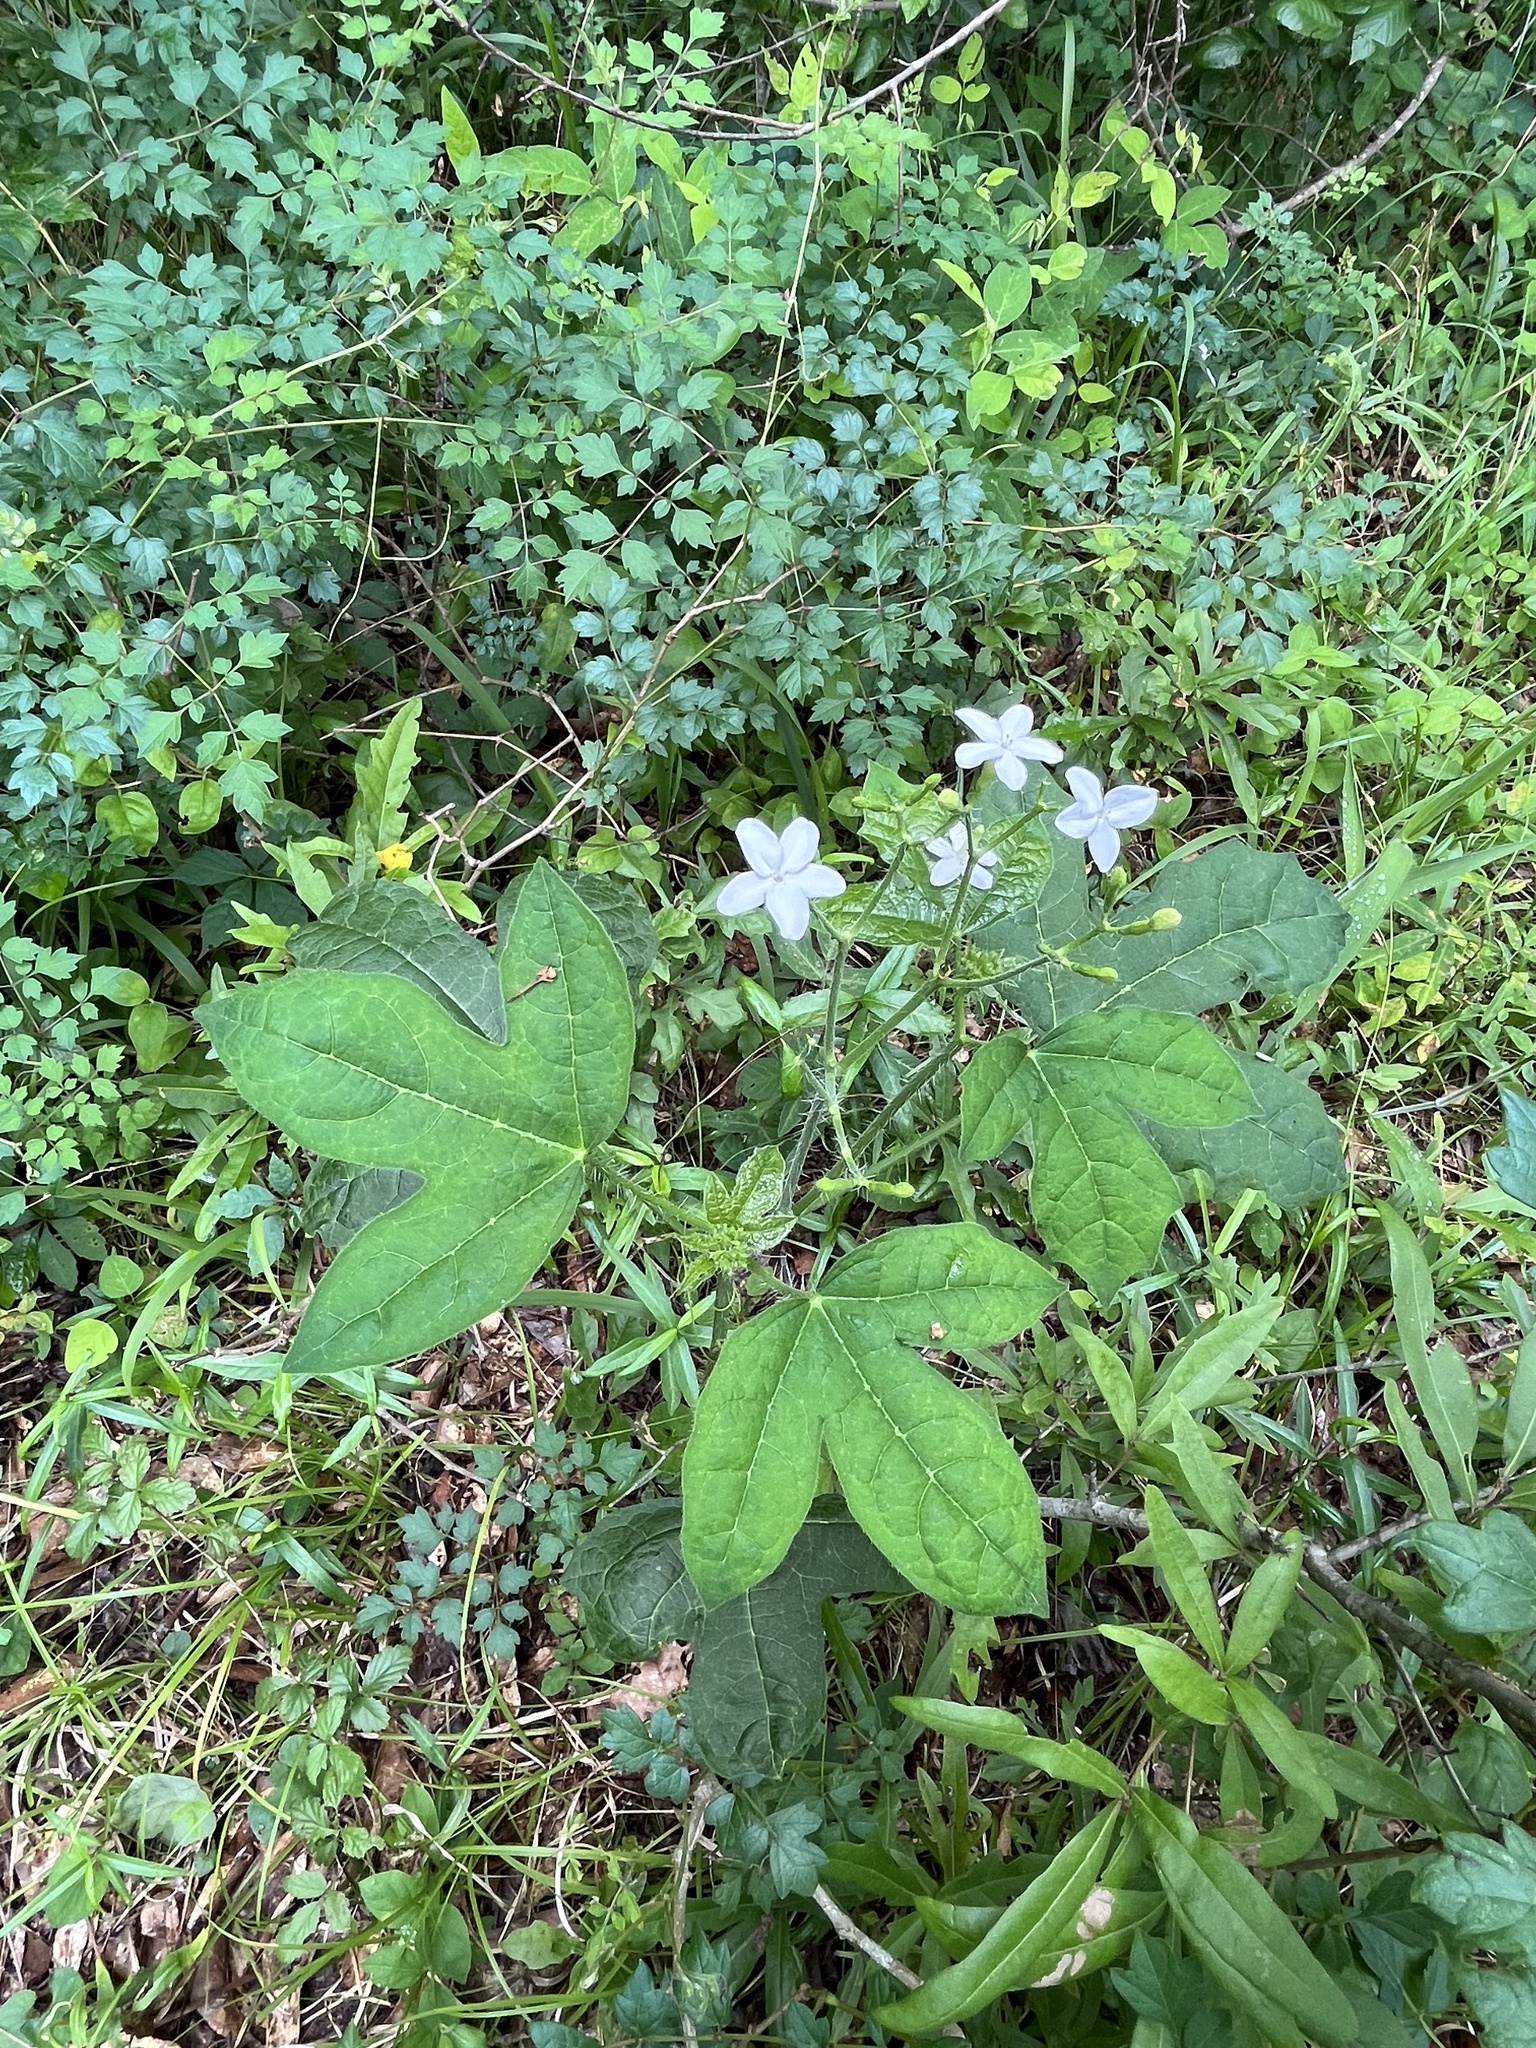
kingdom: Plantae
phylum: Tracheophyta
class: Magnoliopsida
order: Malpighiales
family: Euphorbiaceae
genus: Cnidoscolus
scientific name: Cnidoscolus stimulosus
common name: Bull-nettle
